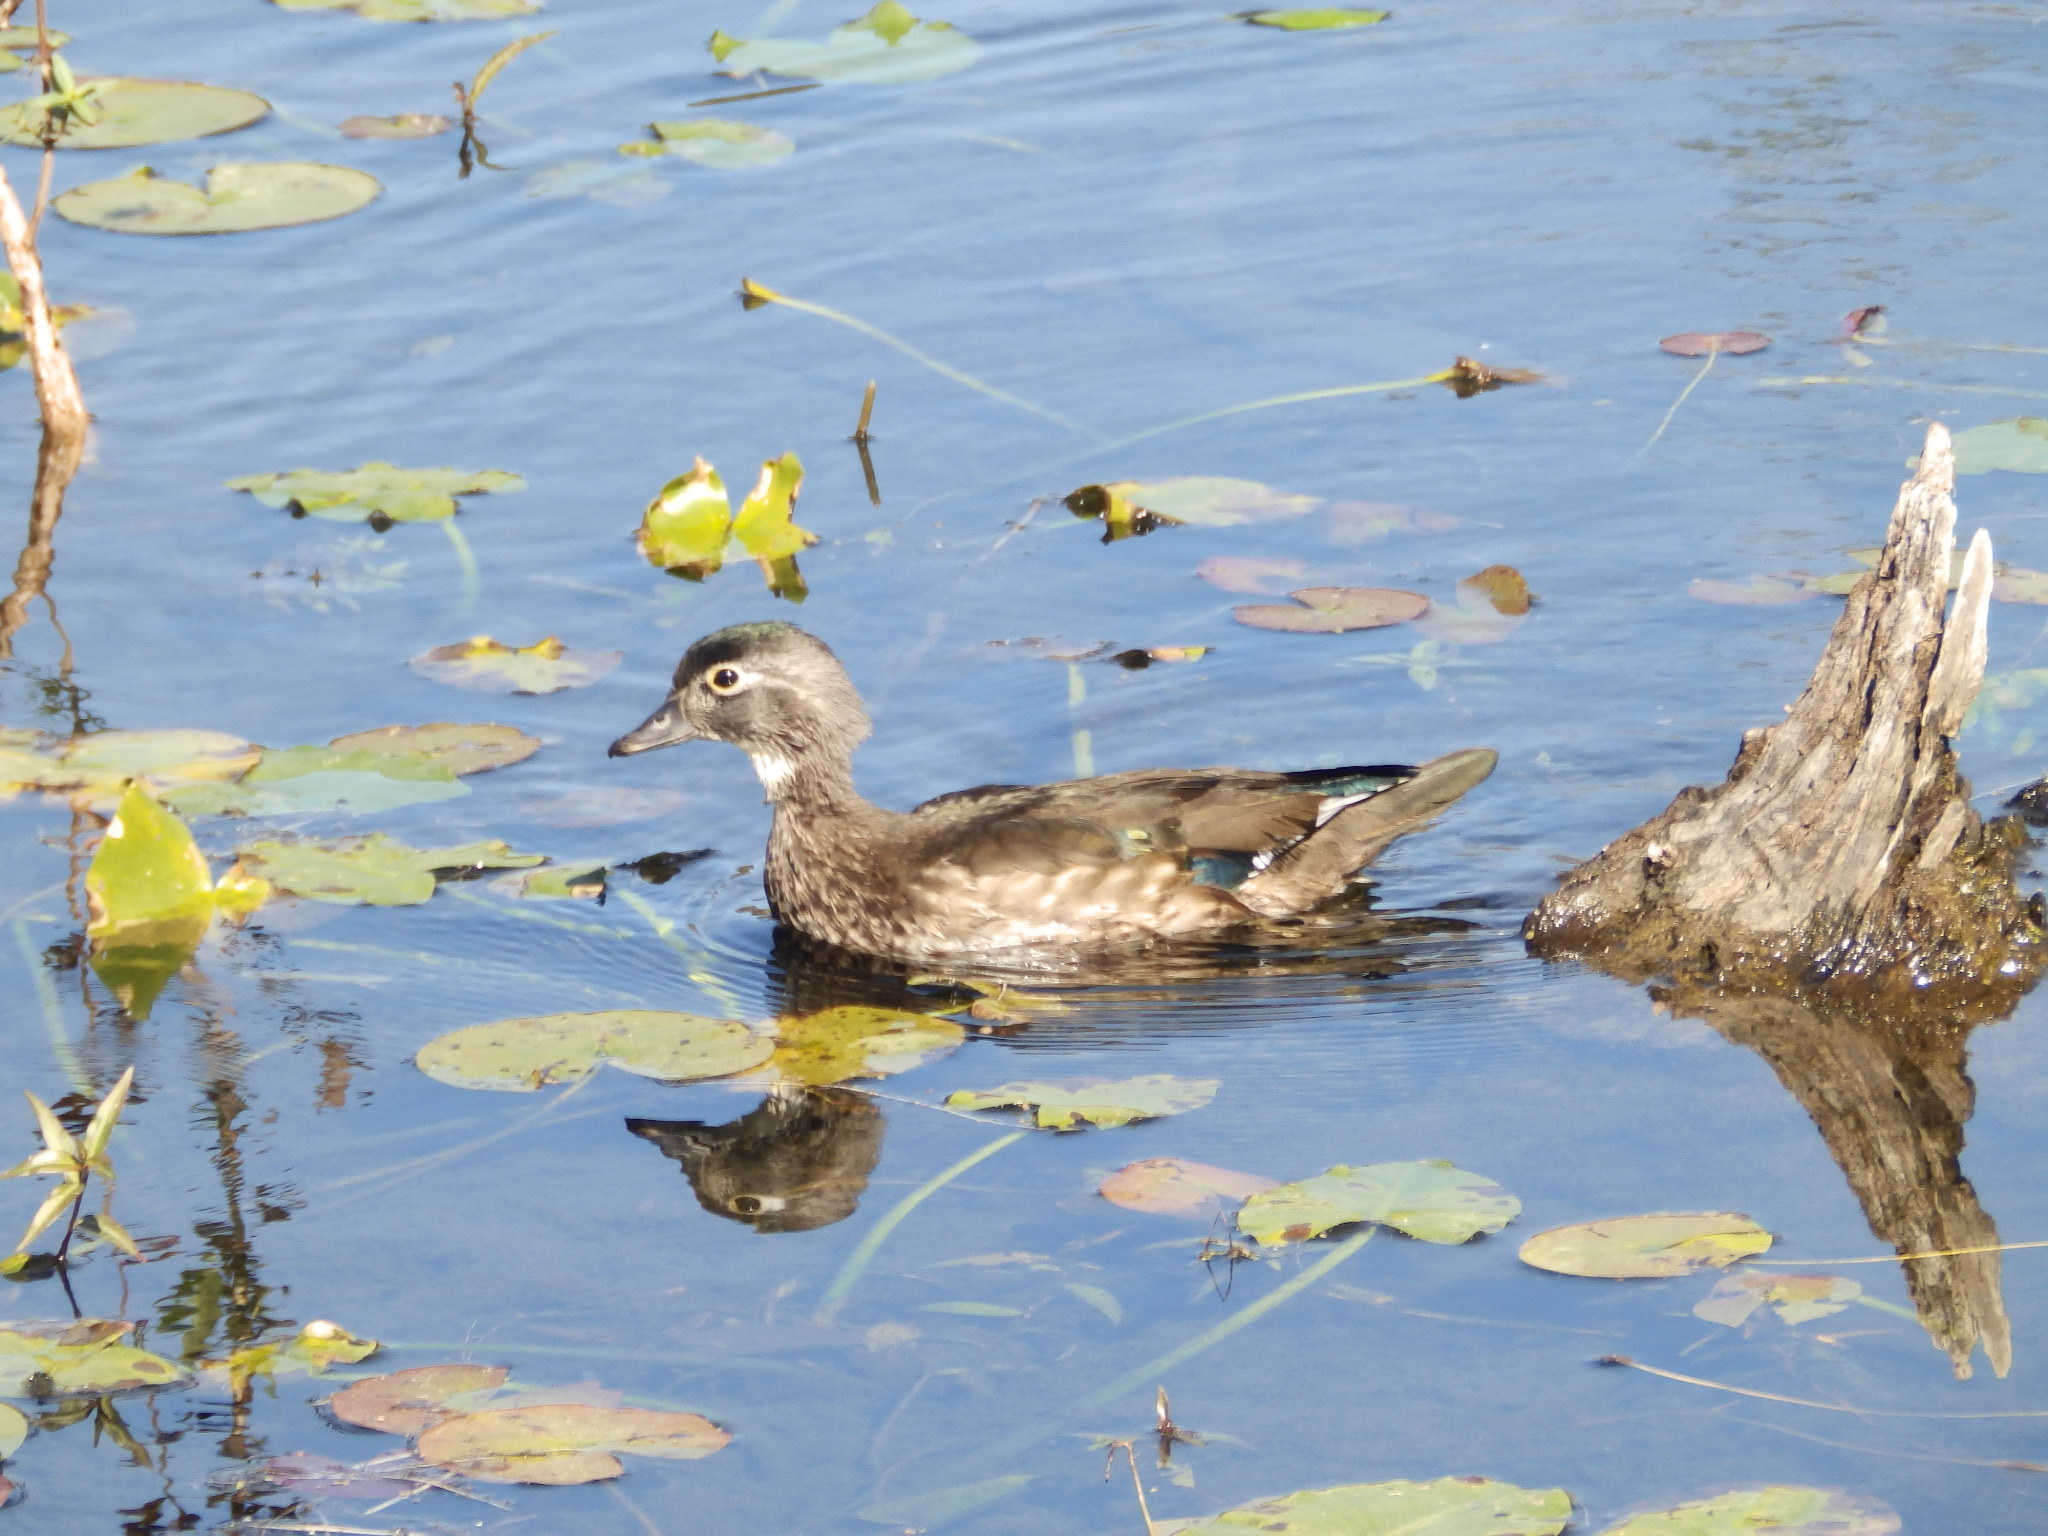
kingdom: Animalia
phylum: Chordata
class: Aves
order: Anseriformes
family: Anatidae
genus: Aix
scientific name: Aix sponsa
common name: Wood duck
